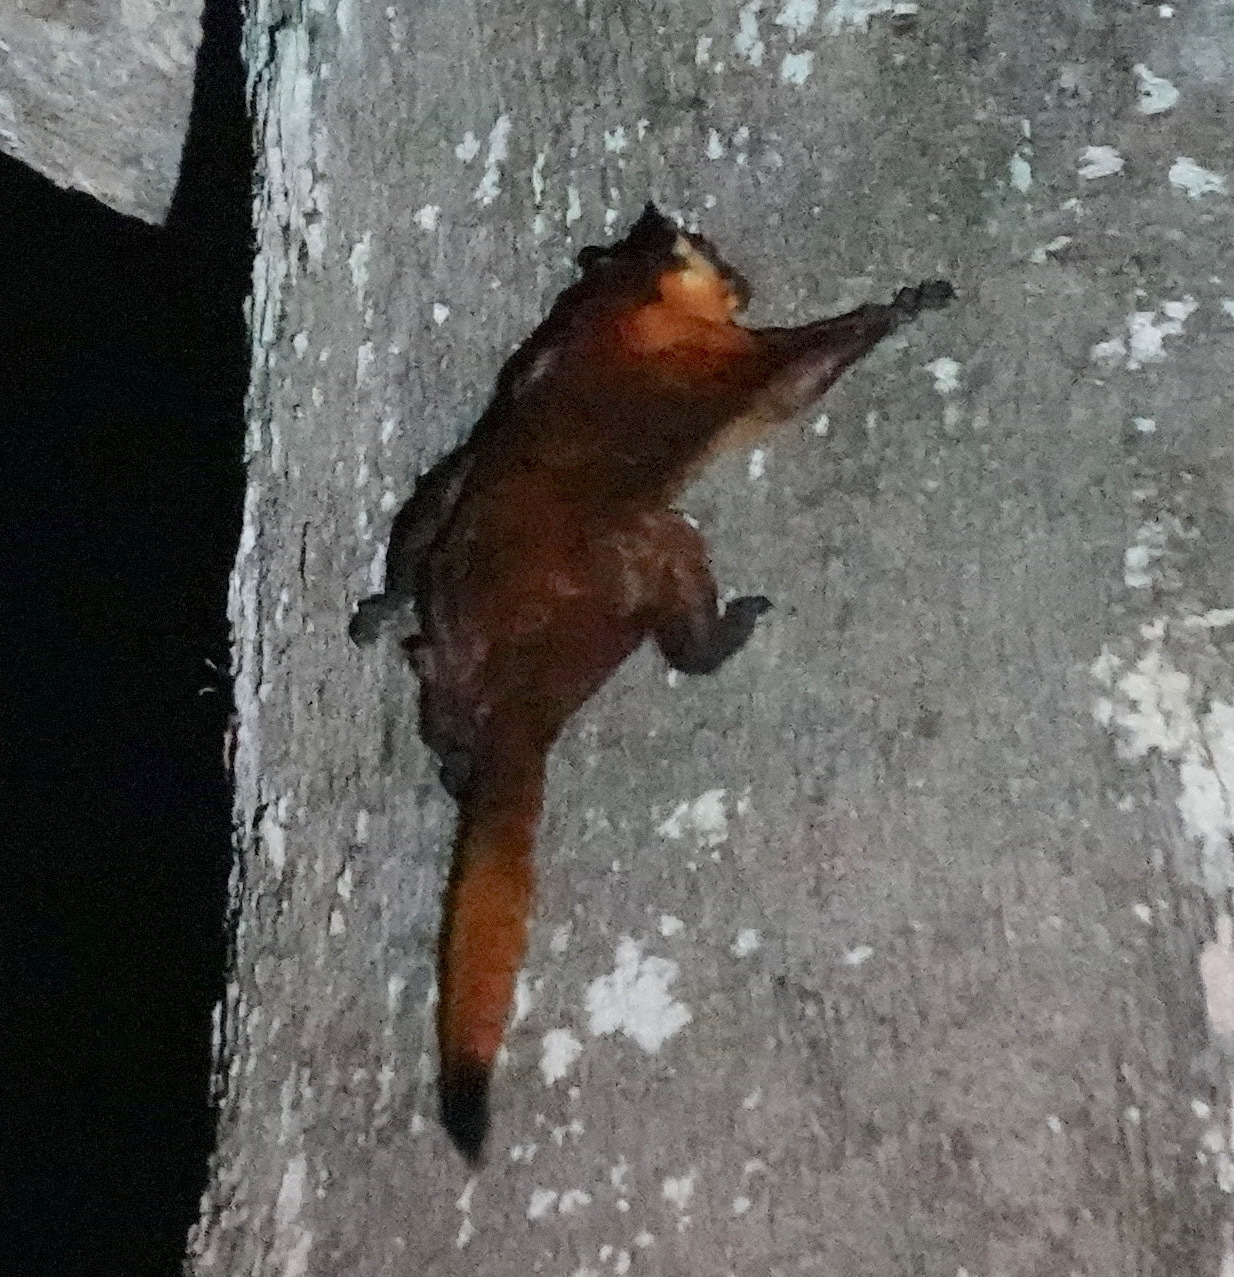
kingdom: Animalia
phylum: Chordata
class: Mammalia
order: Rodentia
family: Sciuridae
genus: Petaurista
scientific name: Petaurista petaurista
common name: Red giant flying squirrel
